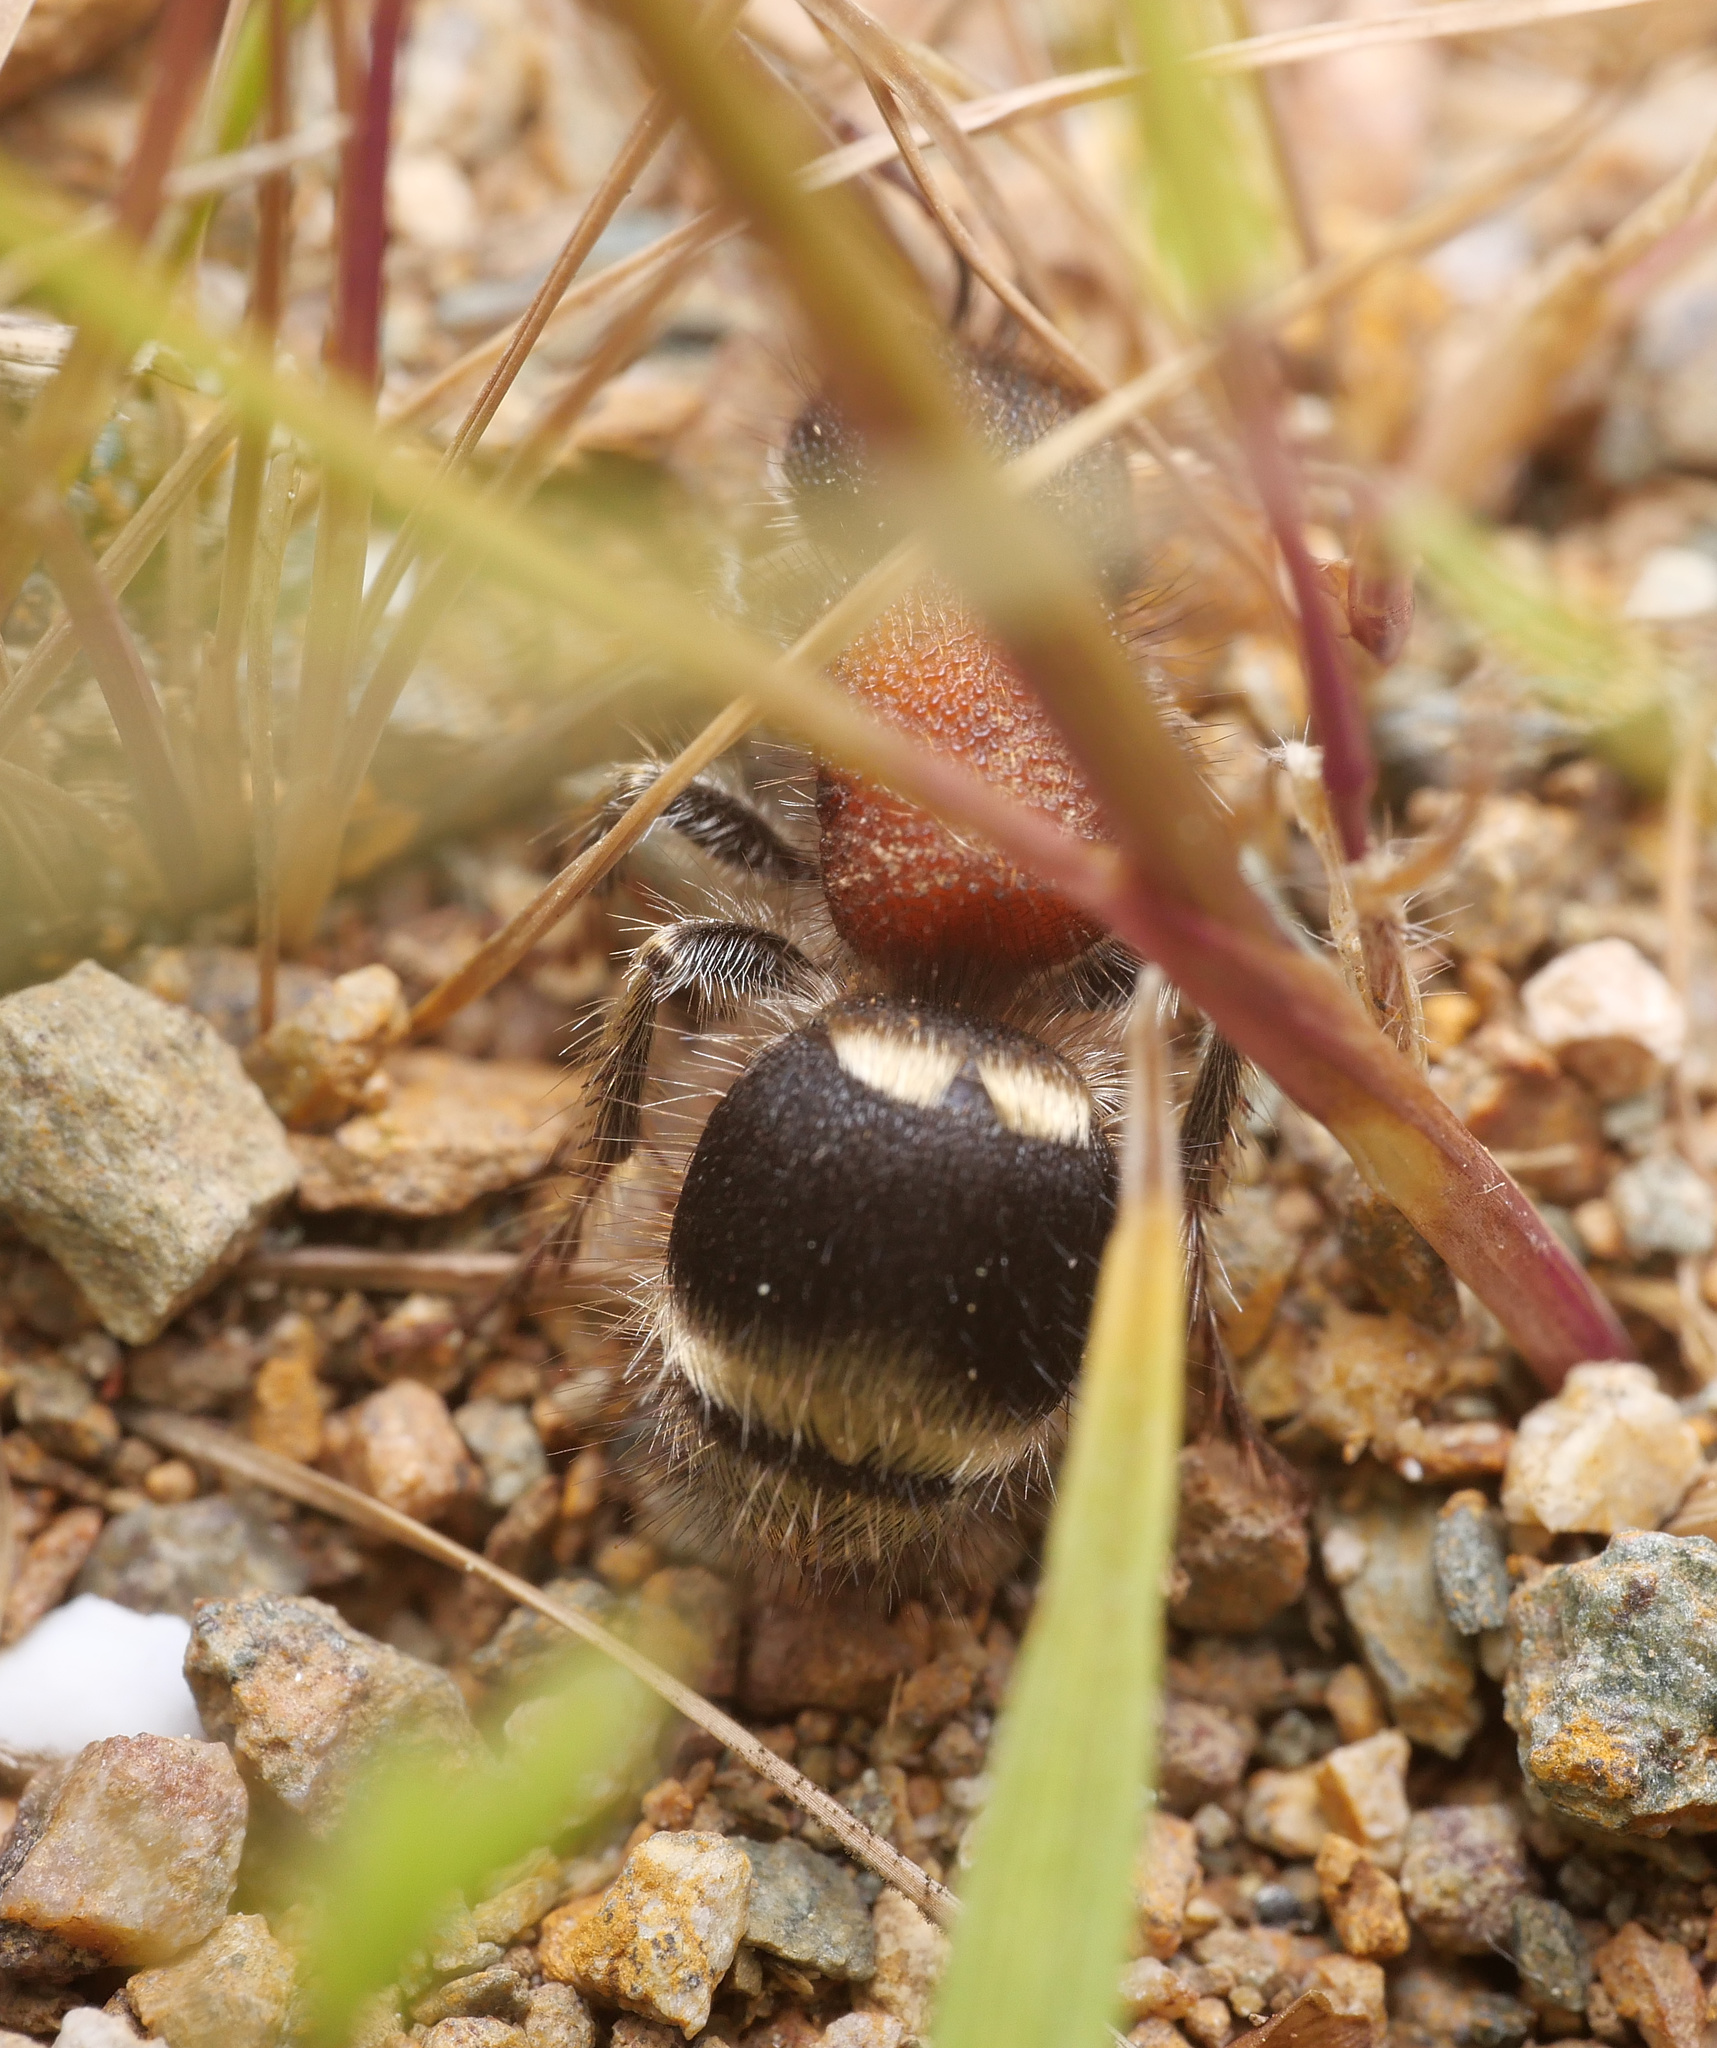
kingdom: Animalia
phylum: Arthropoda
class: Insecta
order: Hymenoptera
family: Mutillidae
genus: Tropidotilla
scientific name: Tropidotilla litoralis
